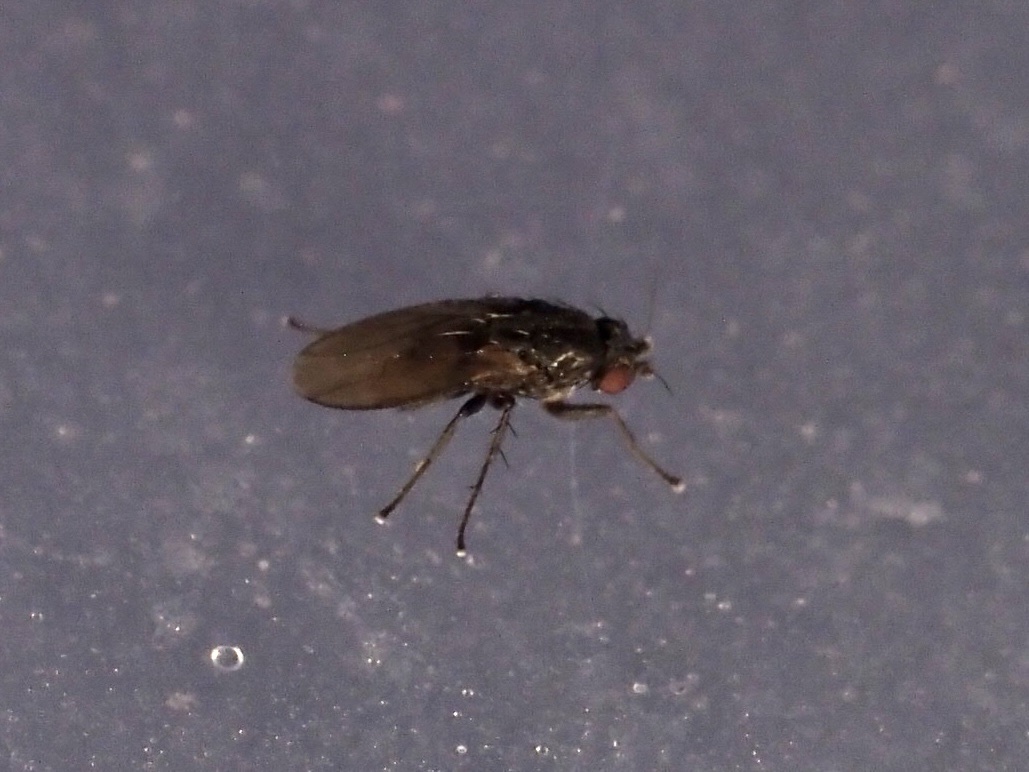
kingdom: Animalia
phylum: Arthropoda
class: Insecta
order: Diptera
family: Sphaeroceridae
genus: Leptocera
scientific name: Leptocera
